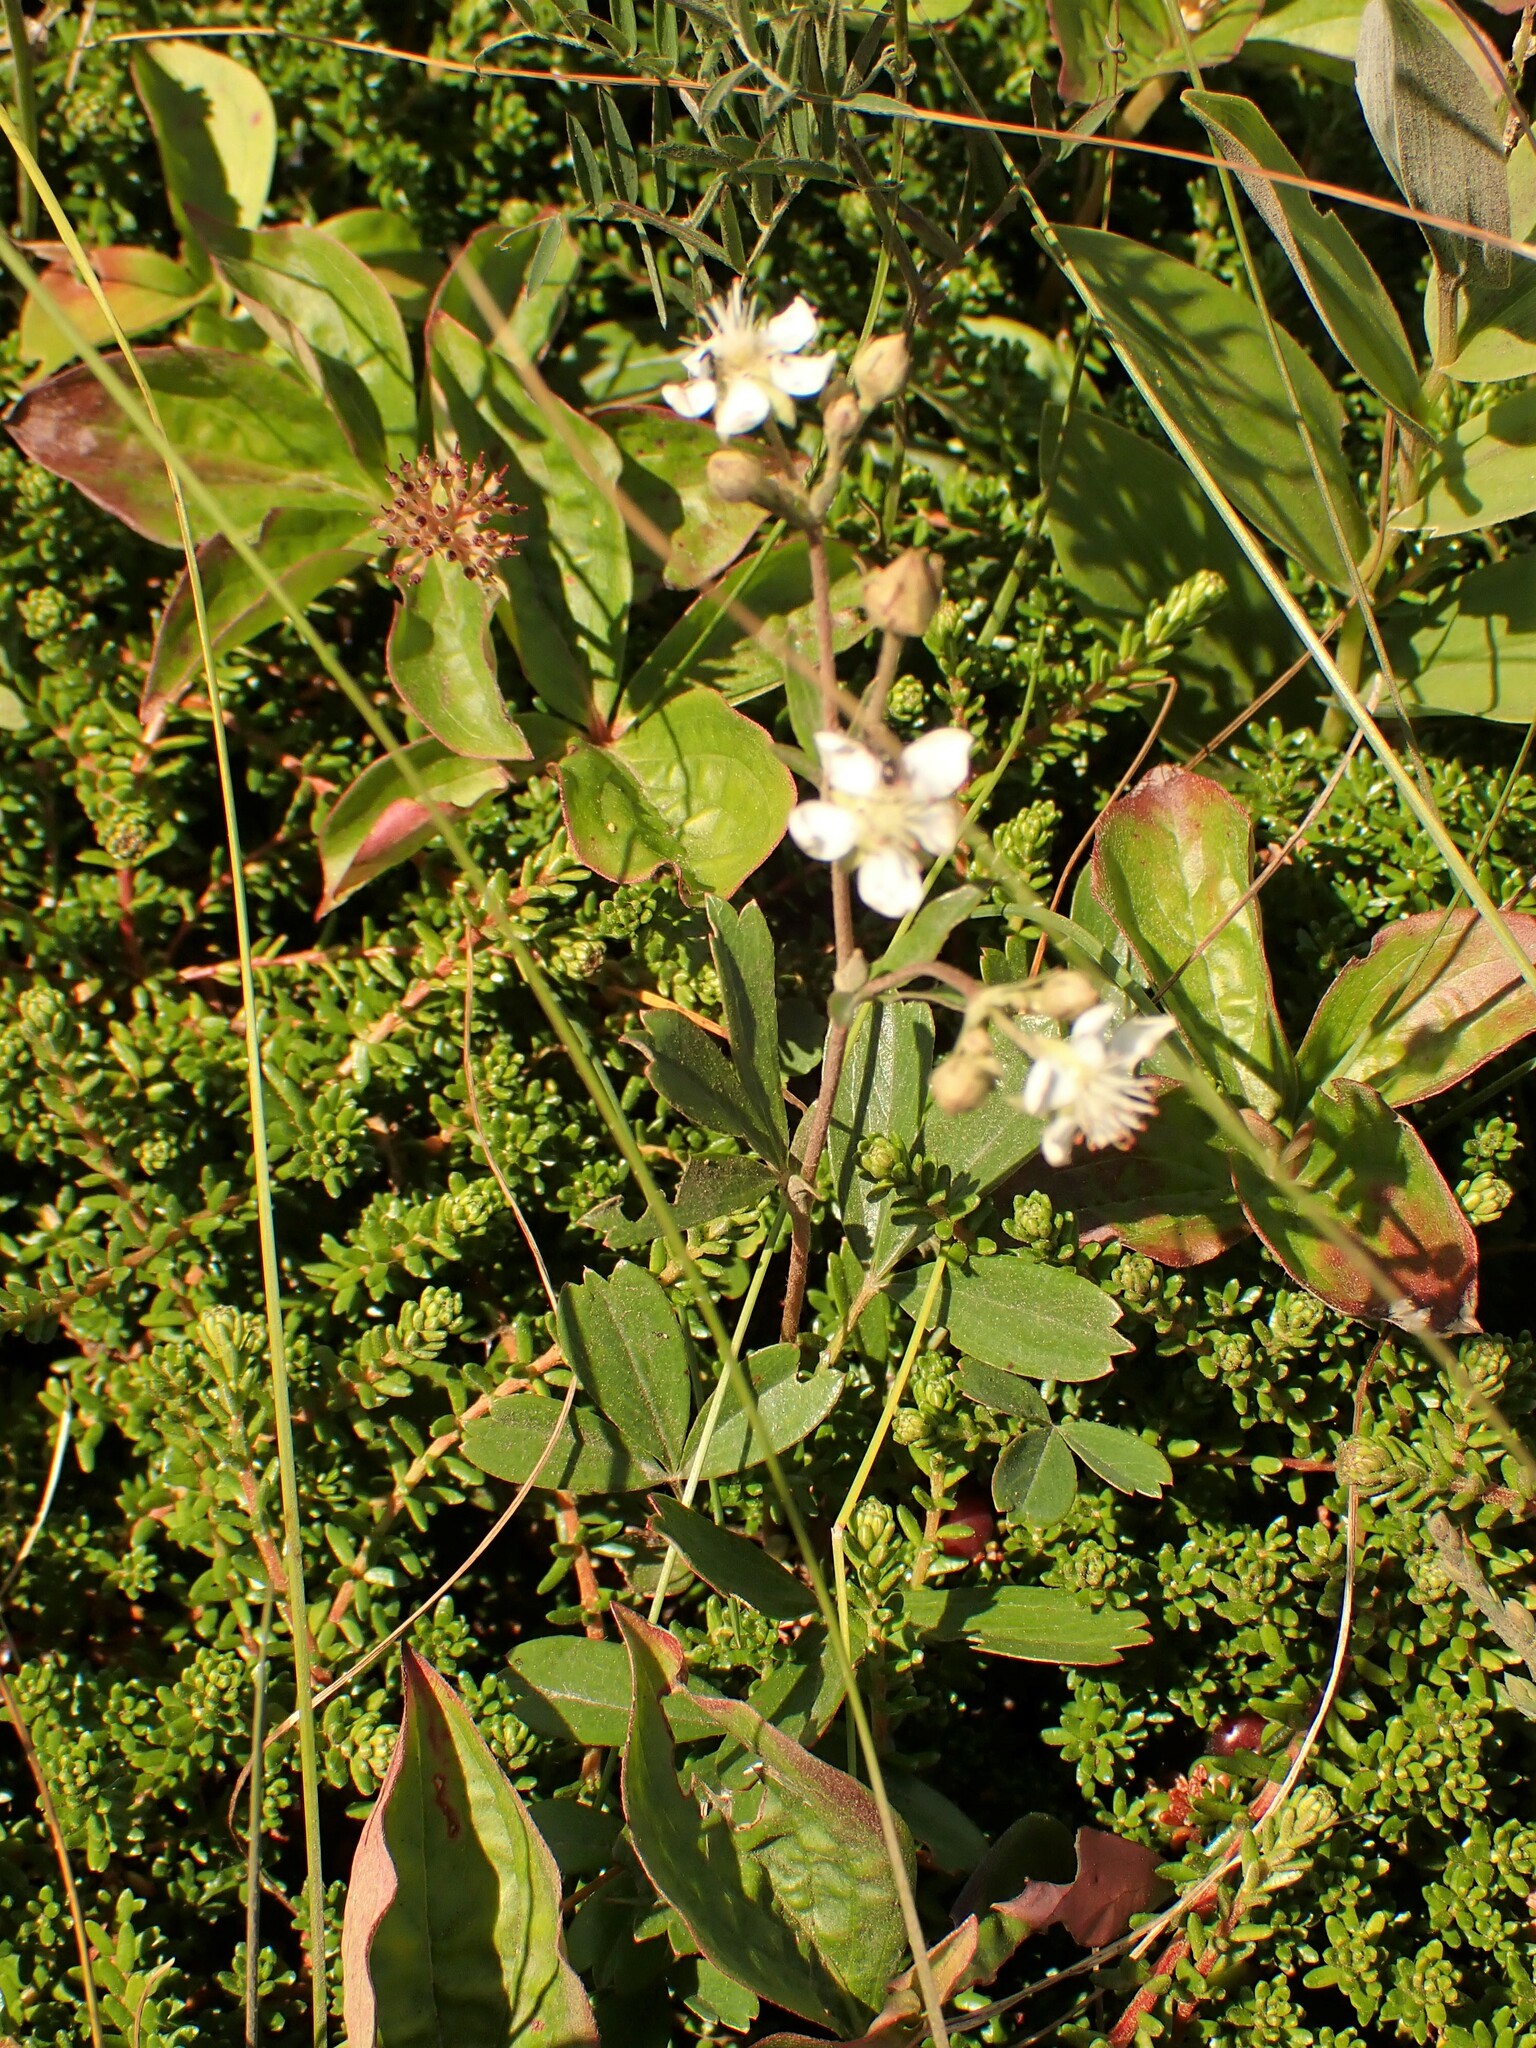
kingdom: Plantae
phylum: Tracheophyta
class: Magnoliopsida
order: Rosales
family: Rosaceae
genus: Sibbaldia
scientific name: Sibbaldia tridentata
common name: Three-toothed cinquefoil
